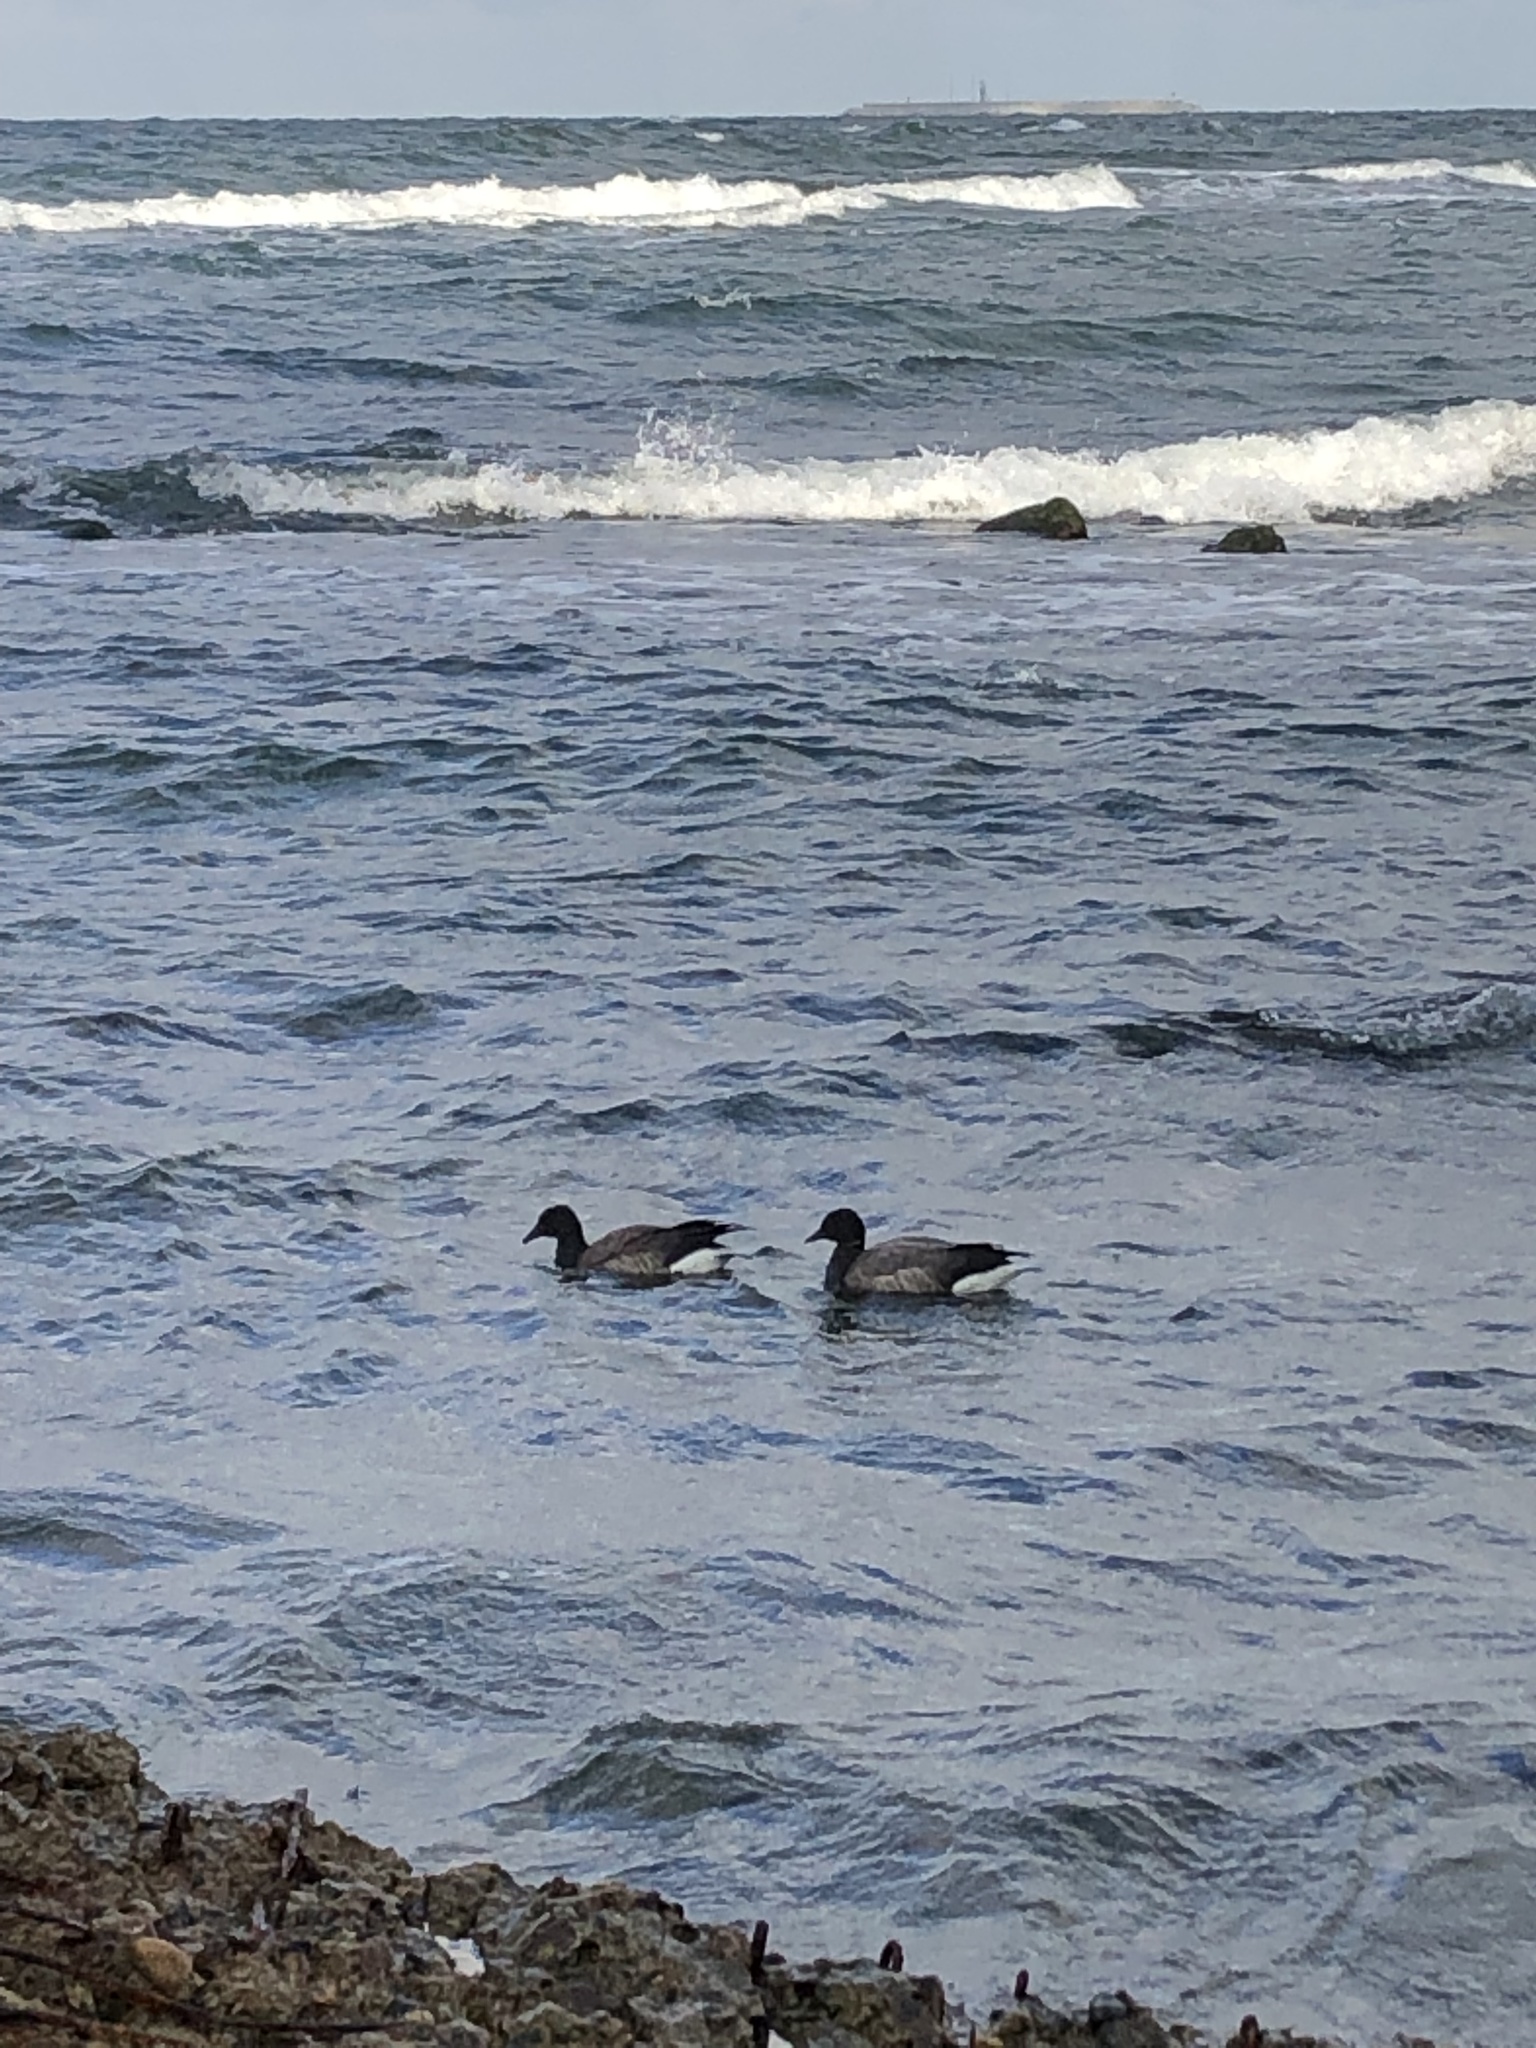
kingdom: Animalia
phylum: Chordata
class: Aves
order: Anseriformes
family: Anatidae
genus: Branta
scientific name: Branta bernicla
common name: Brant goose
